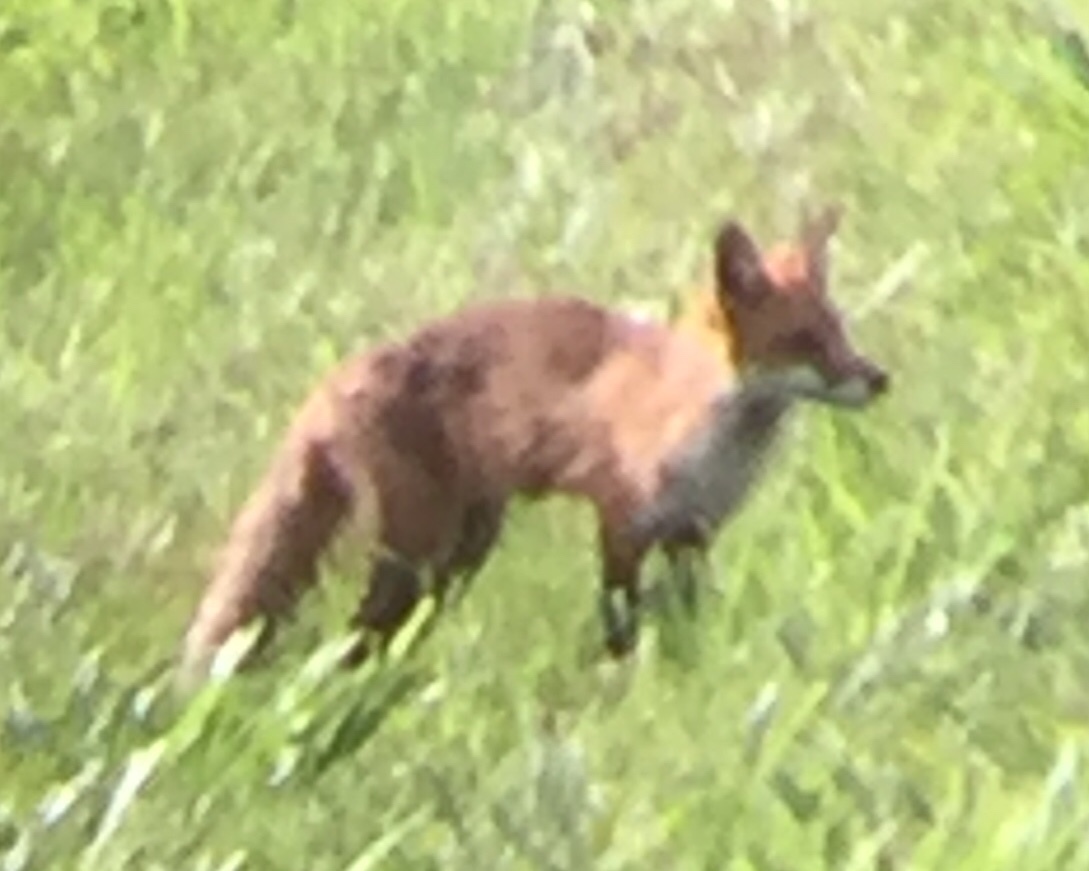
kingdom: Animalia
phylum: Chordata
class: Mammalia
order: Carnivora
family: Canidae
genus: Vulpes
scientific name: Vulpes vulpes
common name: Red fox
